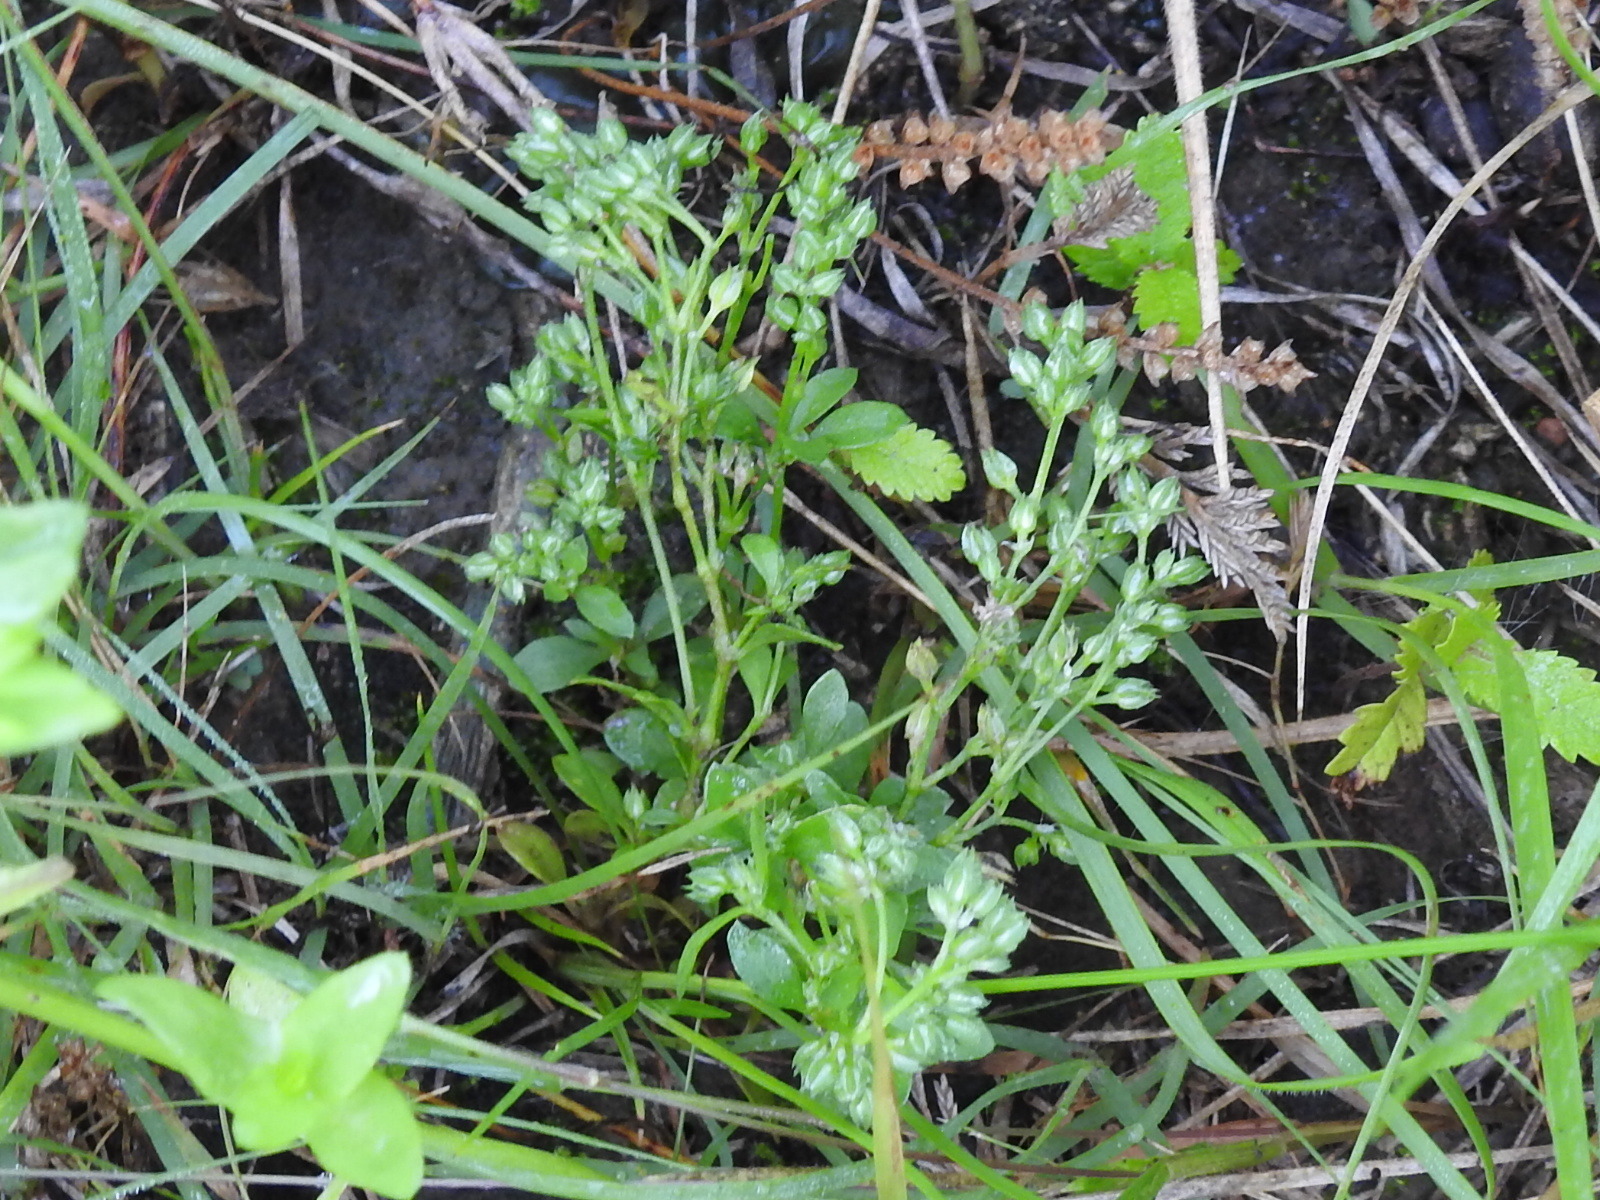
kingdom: Plantae
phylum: Tracheophyta
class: Magnoliopsida
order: Caryophyllales
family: Caryophyllaceae
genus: Polycarpon
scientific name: Polycarpon tetraphyllum
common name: Four-leaved all-seed
